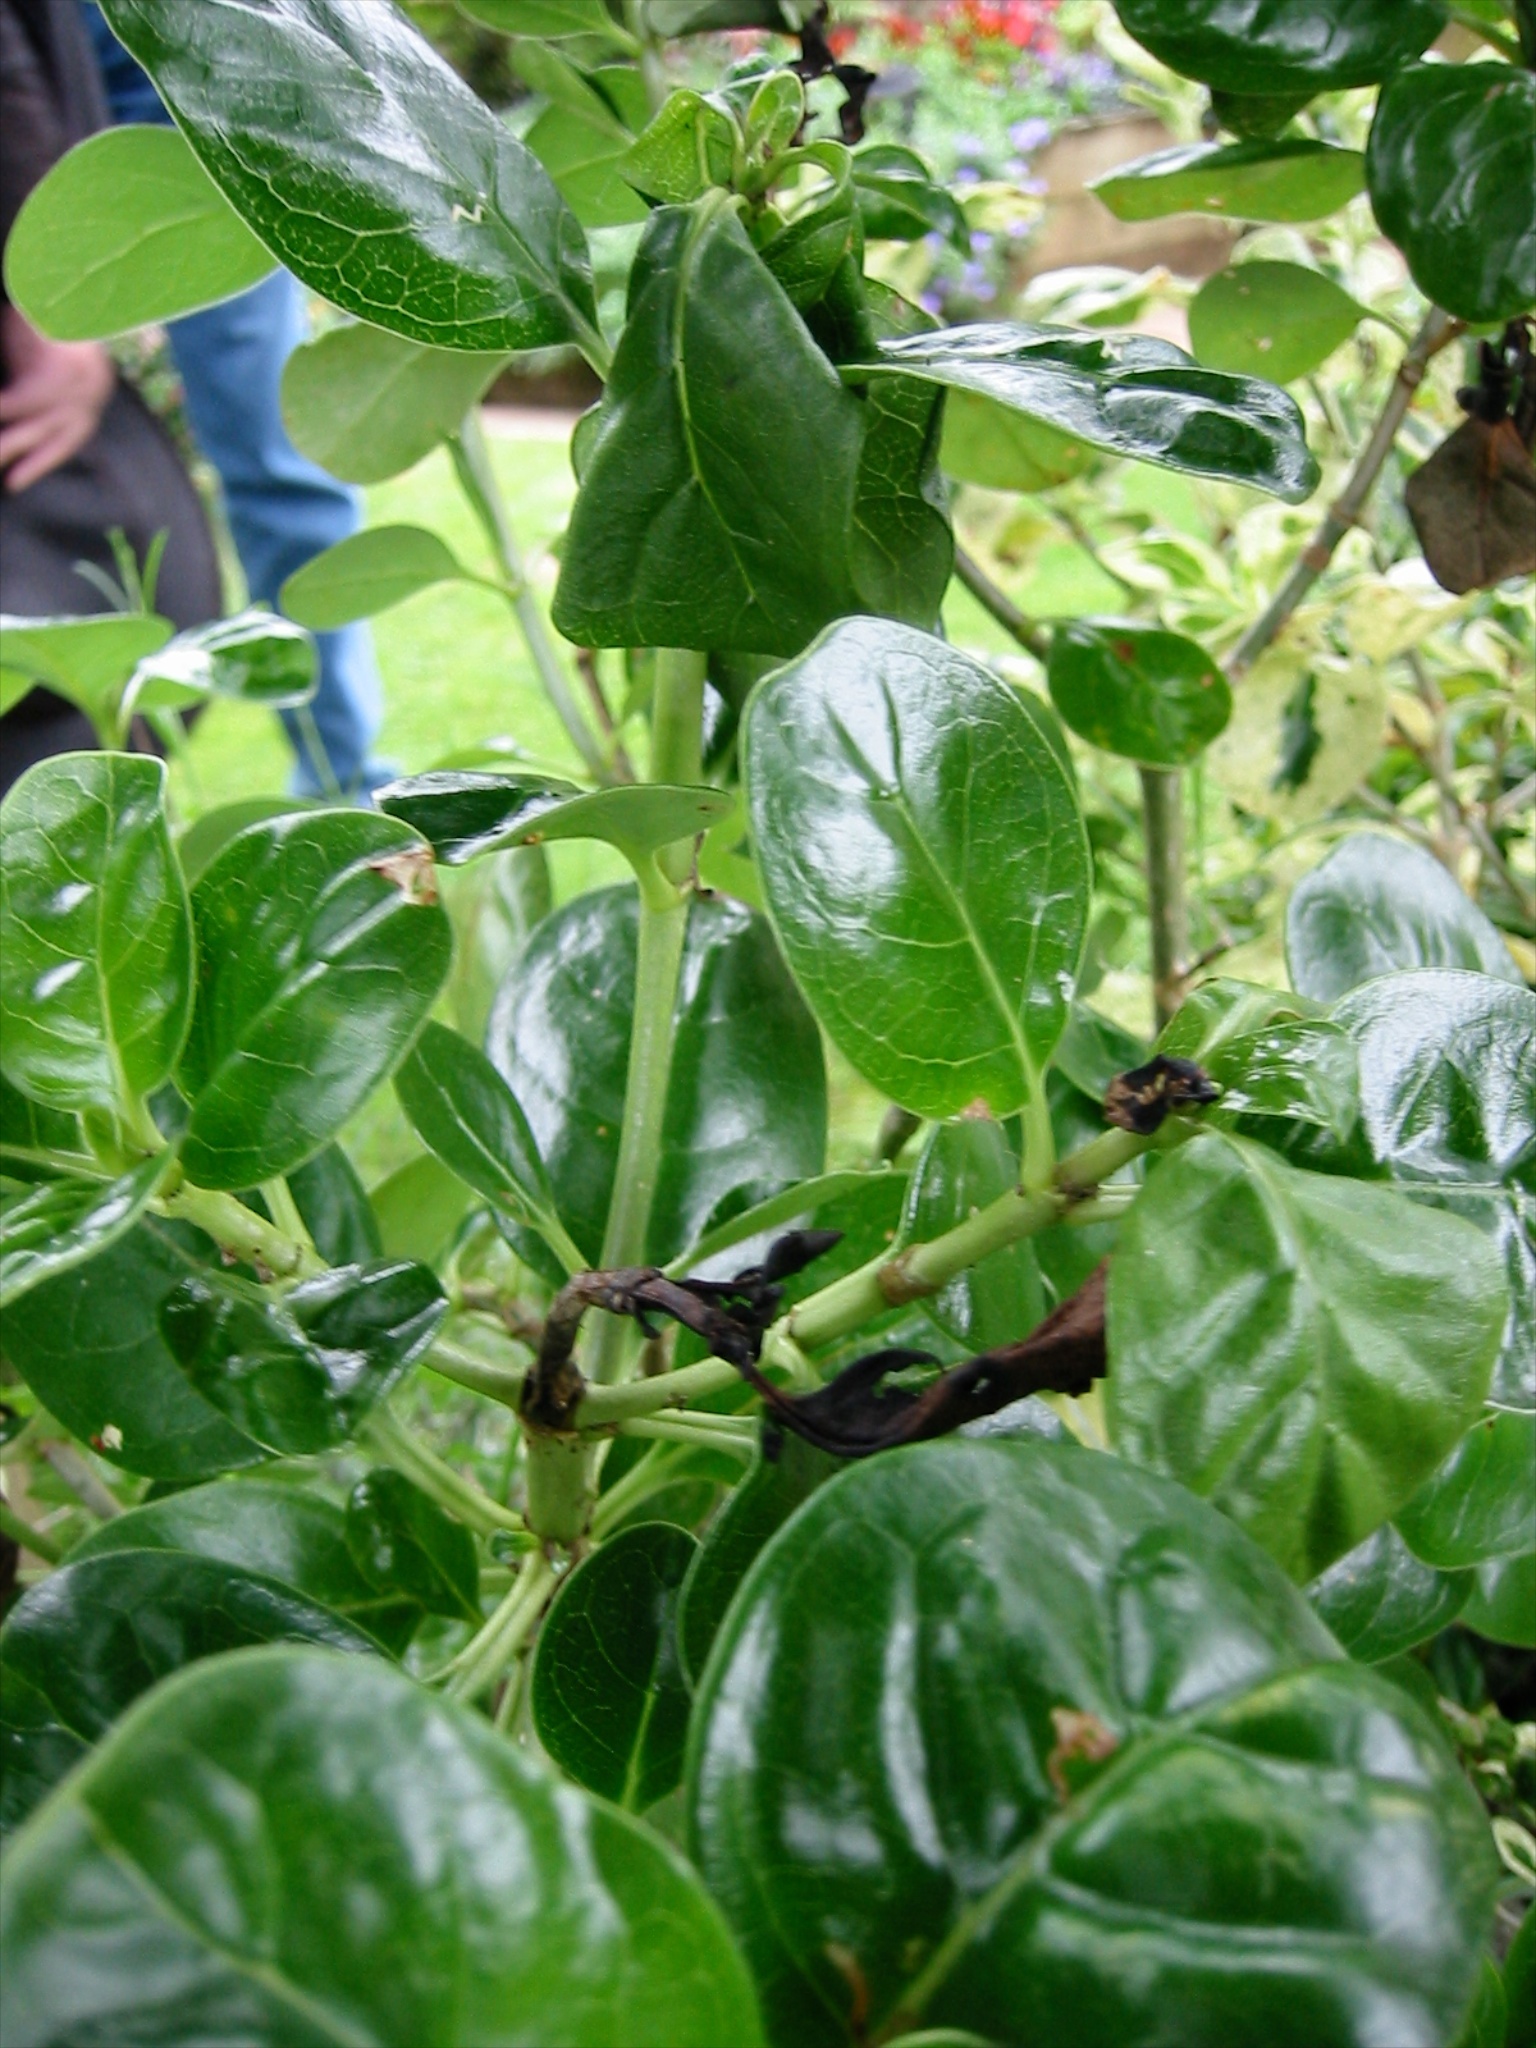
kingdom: Animalia
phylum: Arthropoda
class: Insecta
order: Lepidoptera
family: Galacticidae
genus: Tanaoctena
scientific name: Tanaoctena dubia
